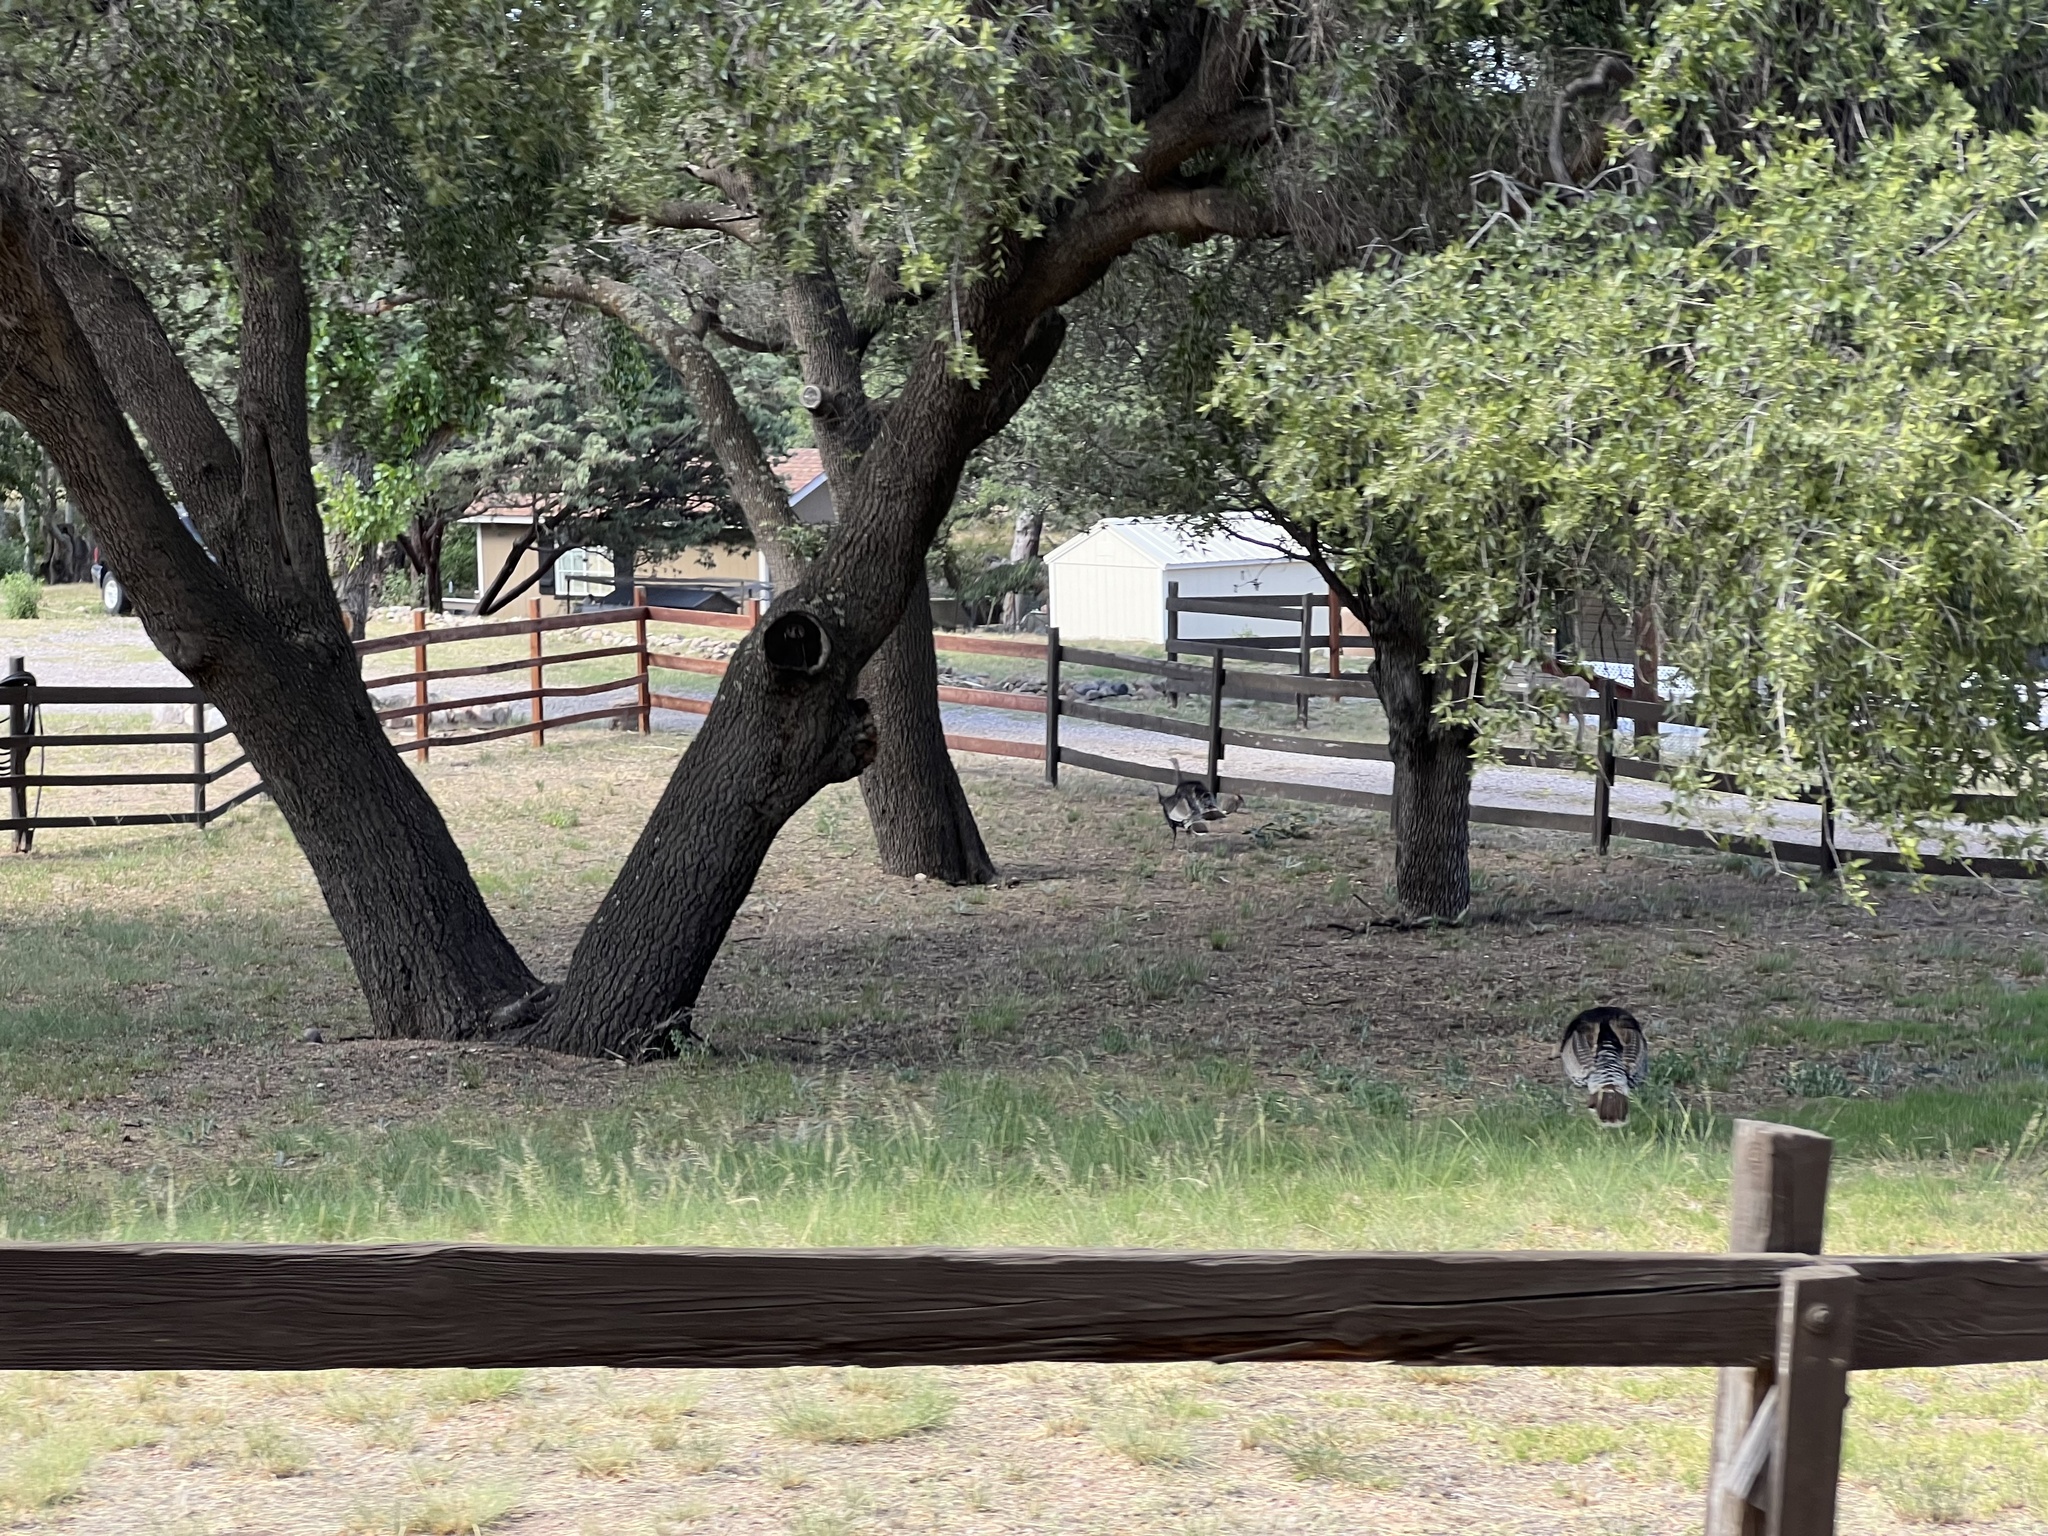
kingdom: Animalia
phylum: Chordata
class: Aves
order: Galliformes
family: Phasianidae
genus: Meleagris
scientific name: Meleagris gallopavo
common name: Wild turkey
